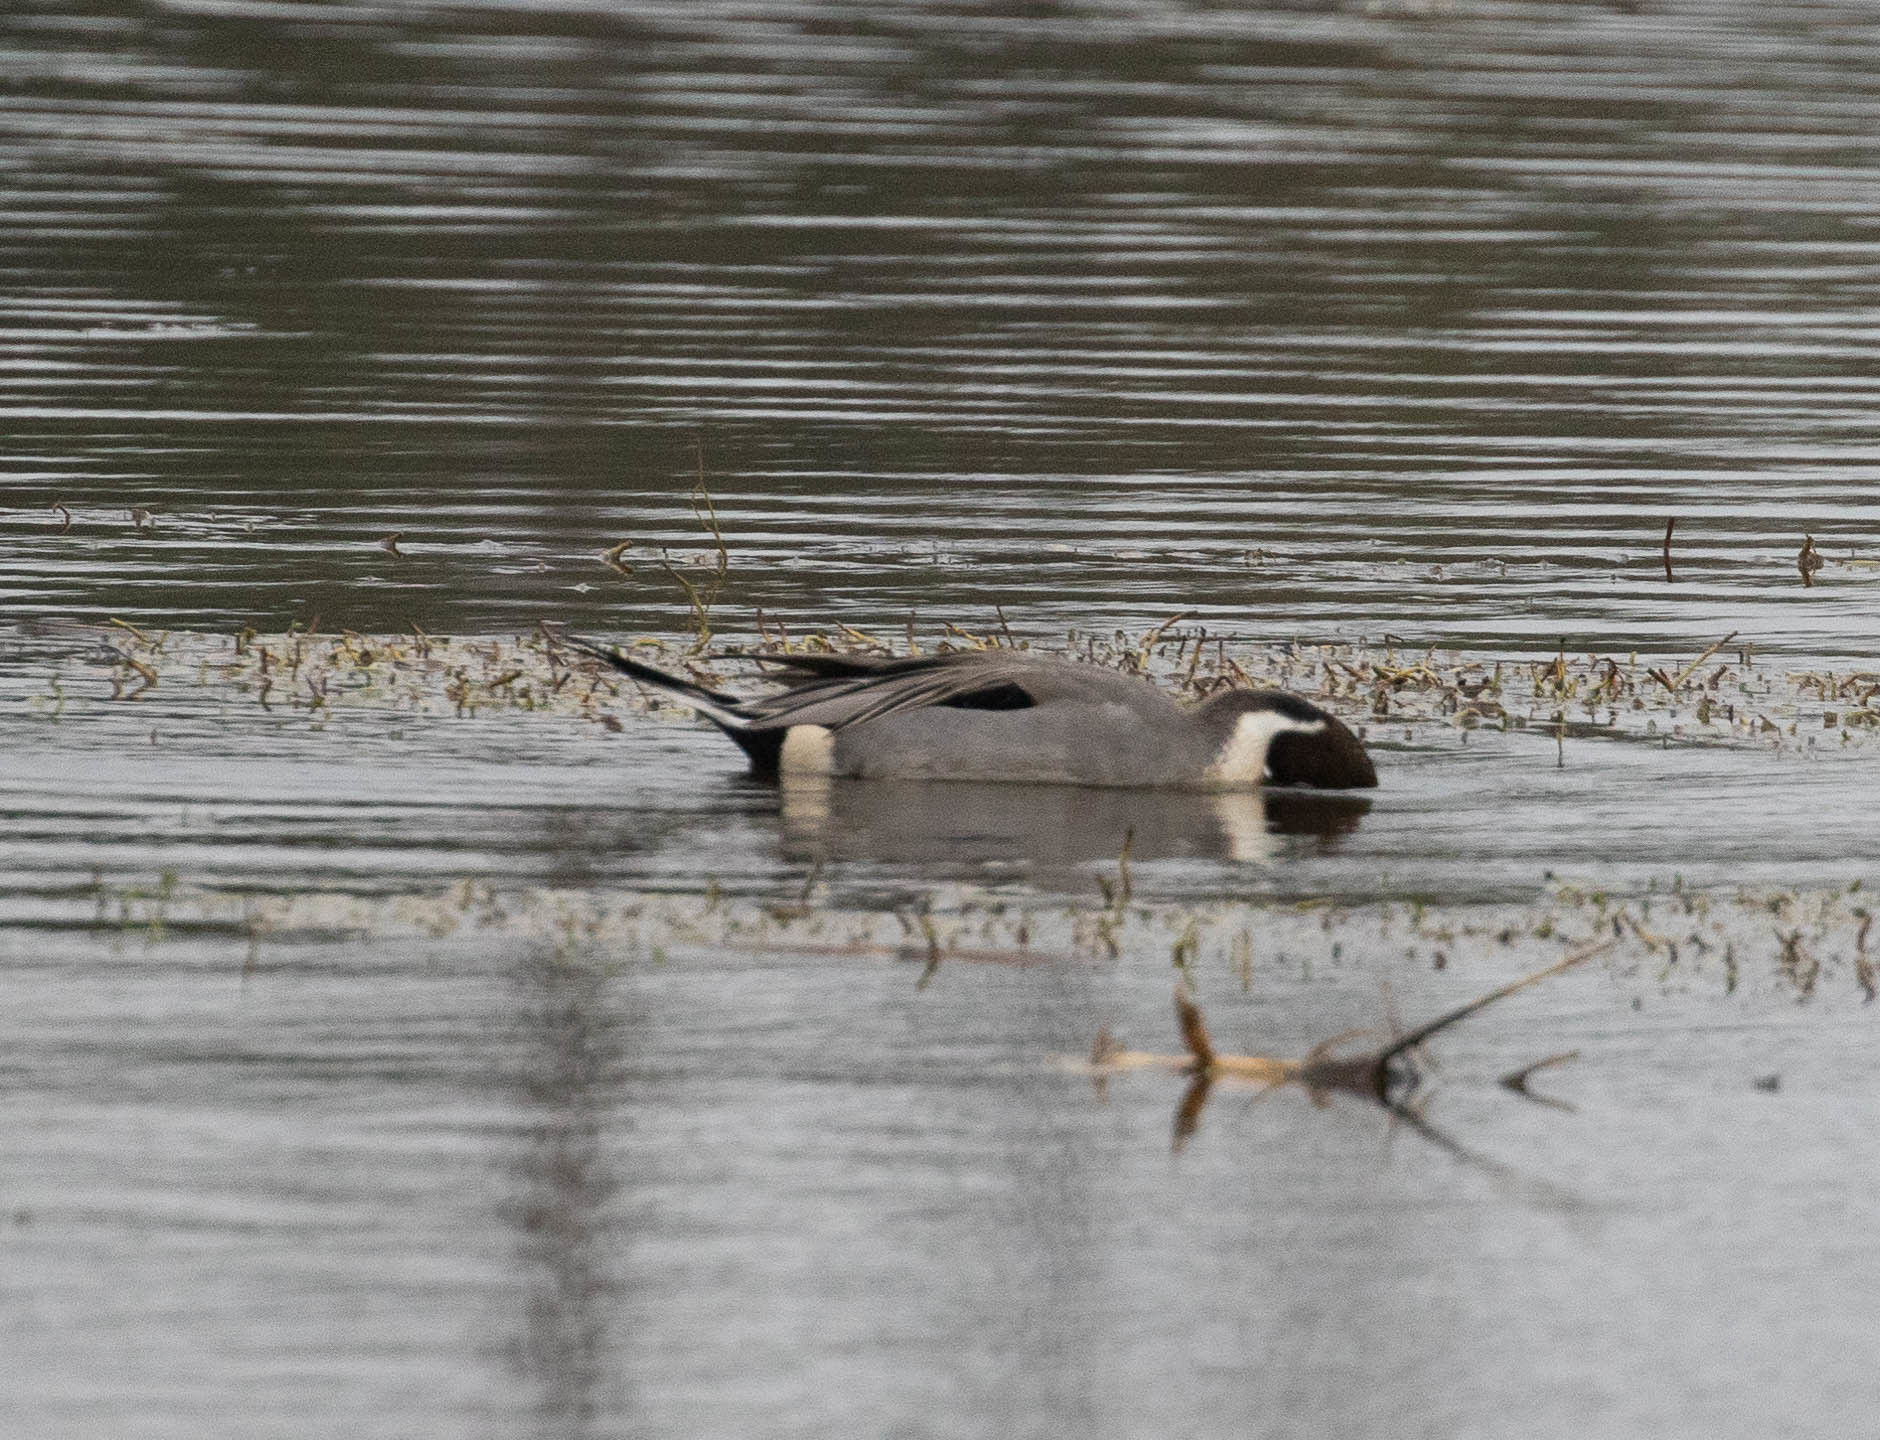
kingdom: Animalia
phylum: Chordata
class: Aves
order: Anseriformes
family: Anatidae
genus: Anas
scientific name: Anas acuta
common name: Northern pintail
